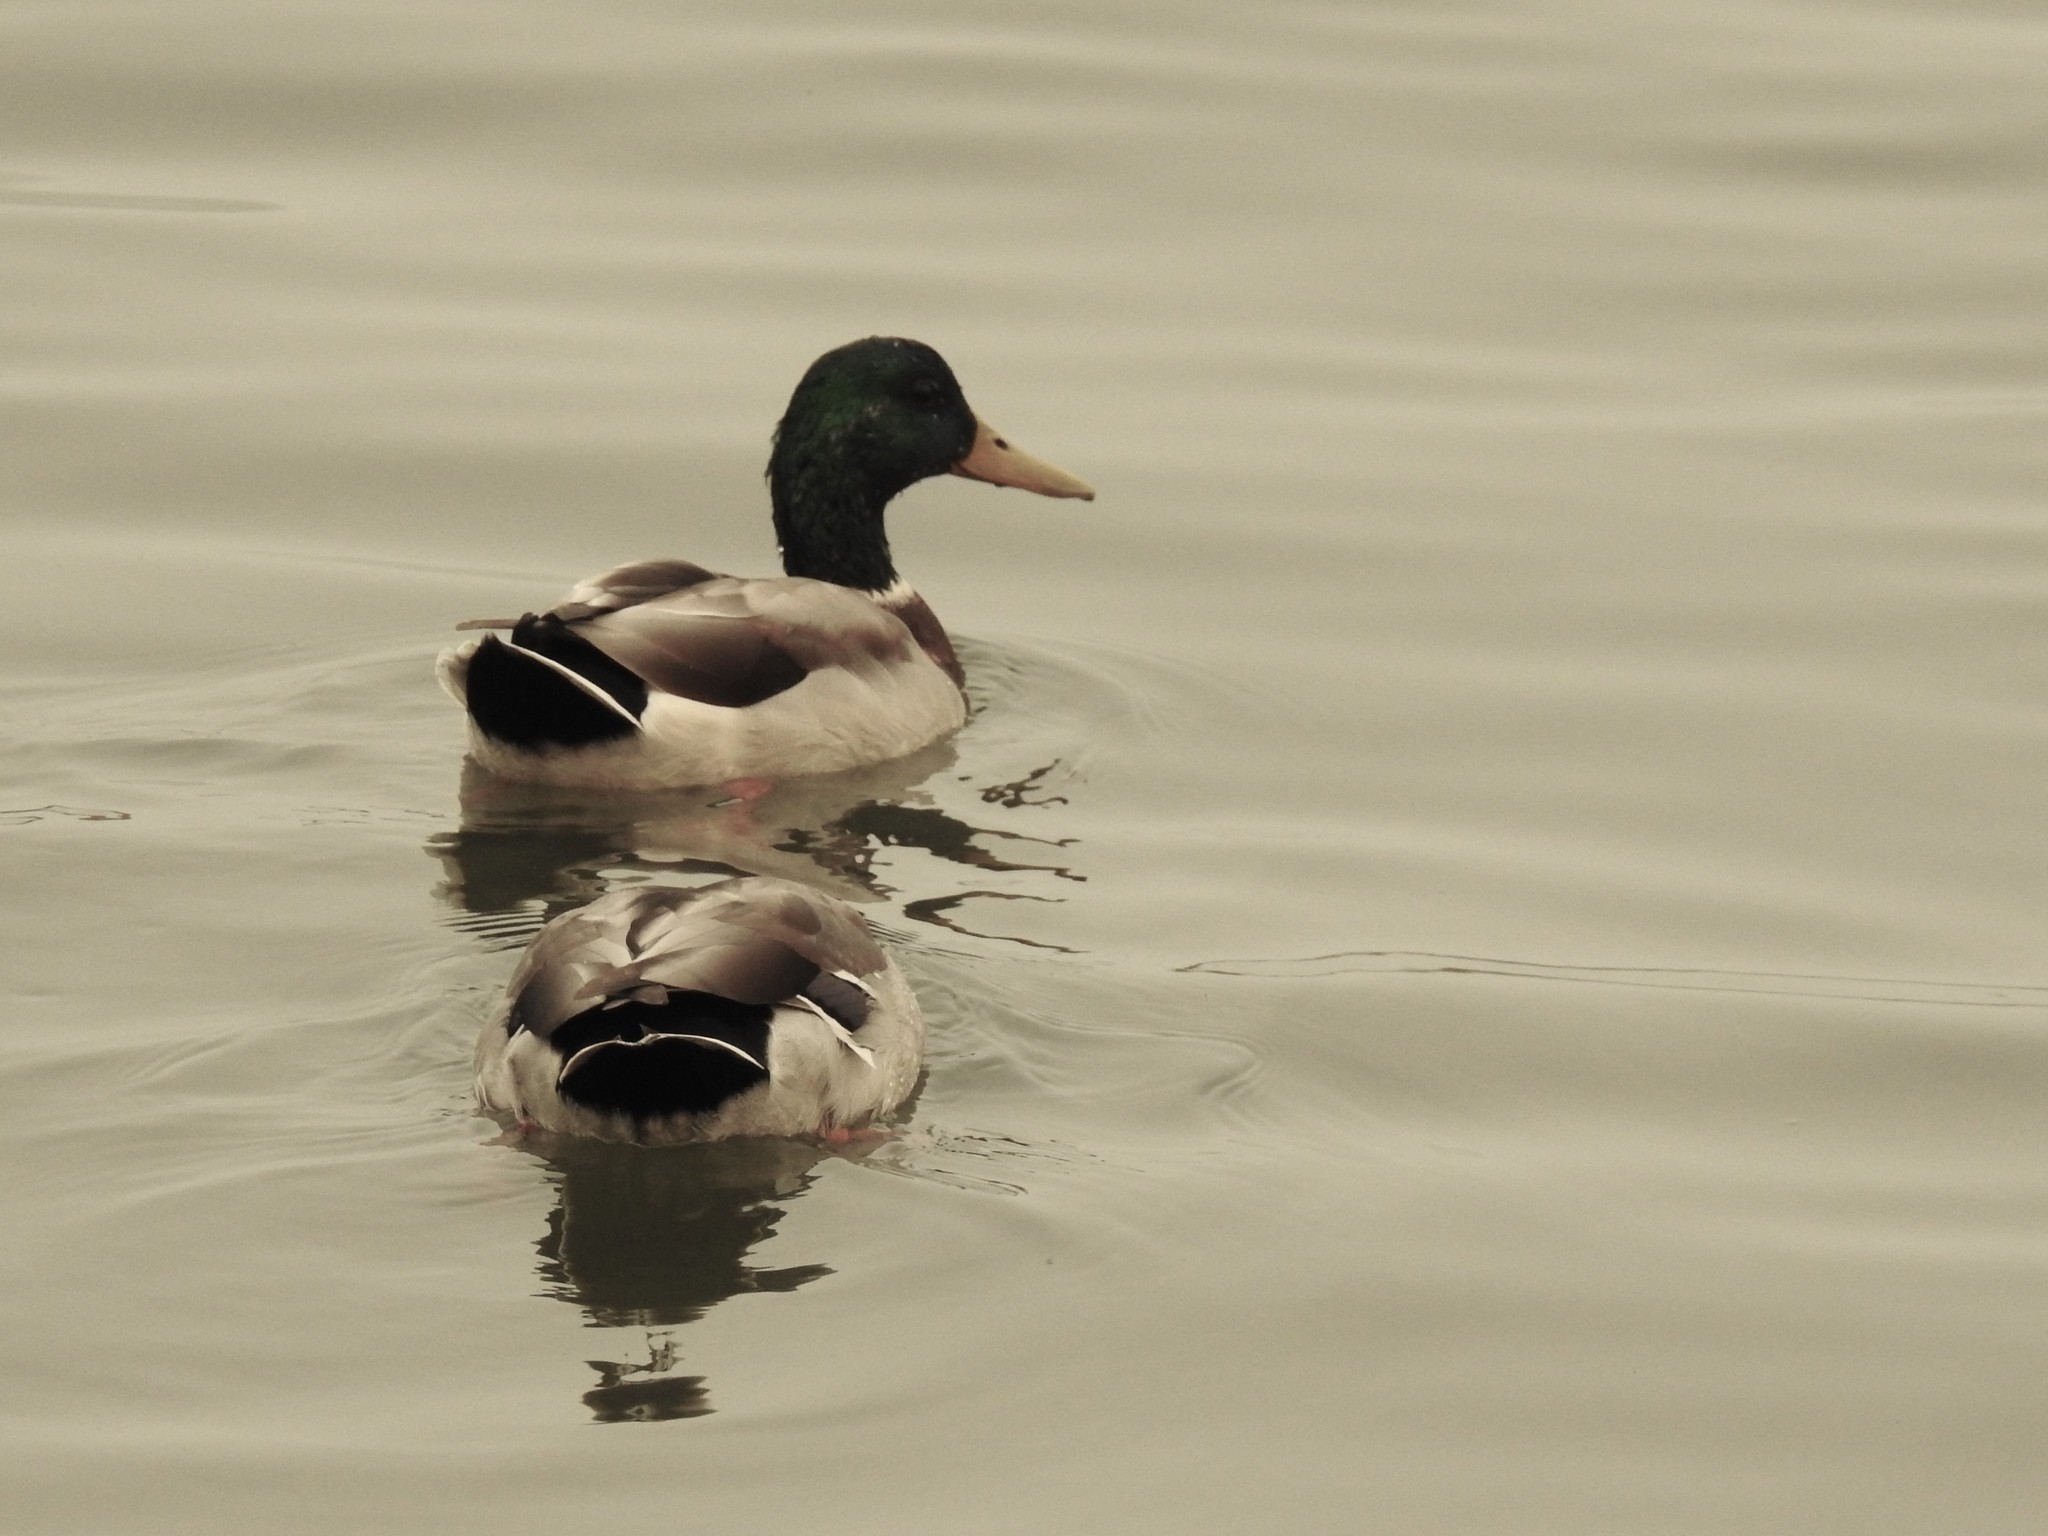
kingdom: Animalia
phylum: Chordata
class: Aves
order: Anseriformes
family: Anatidae
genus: Anas
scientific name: Anas platyrhynchos
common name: Mallard
